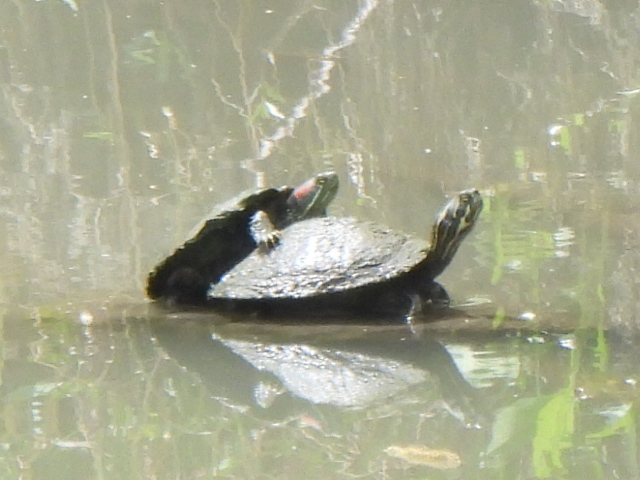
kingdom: Animalia
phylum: Chordata
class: Testudines
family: Emydidae
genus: Trachemys
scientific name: Trachemys scripta
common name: Slider
